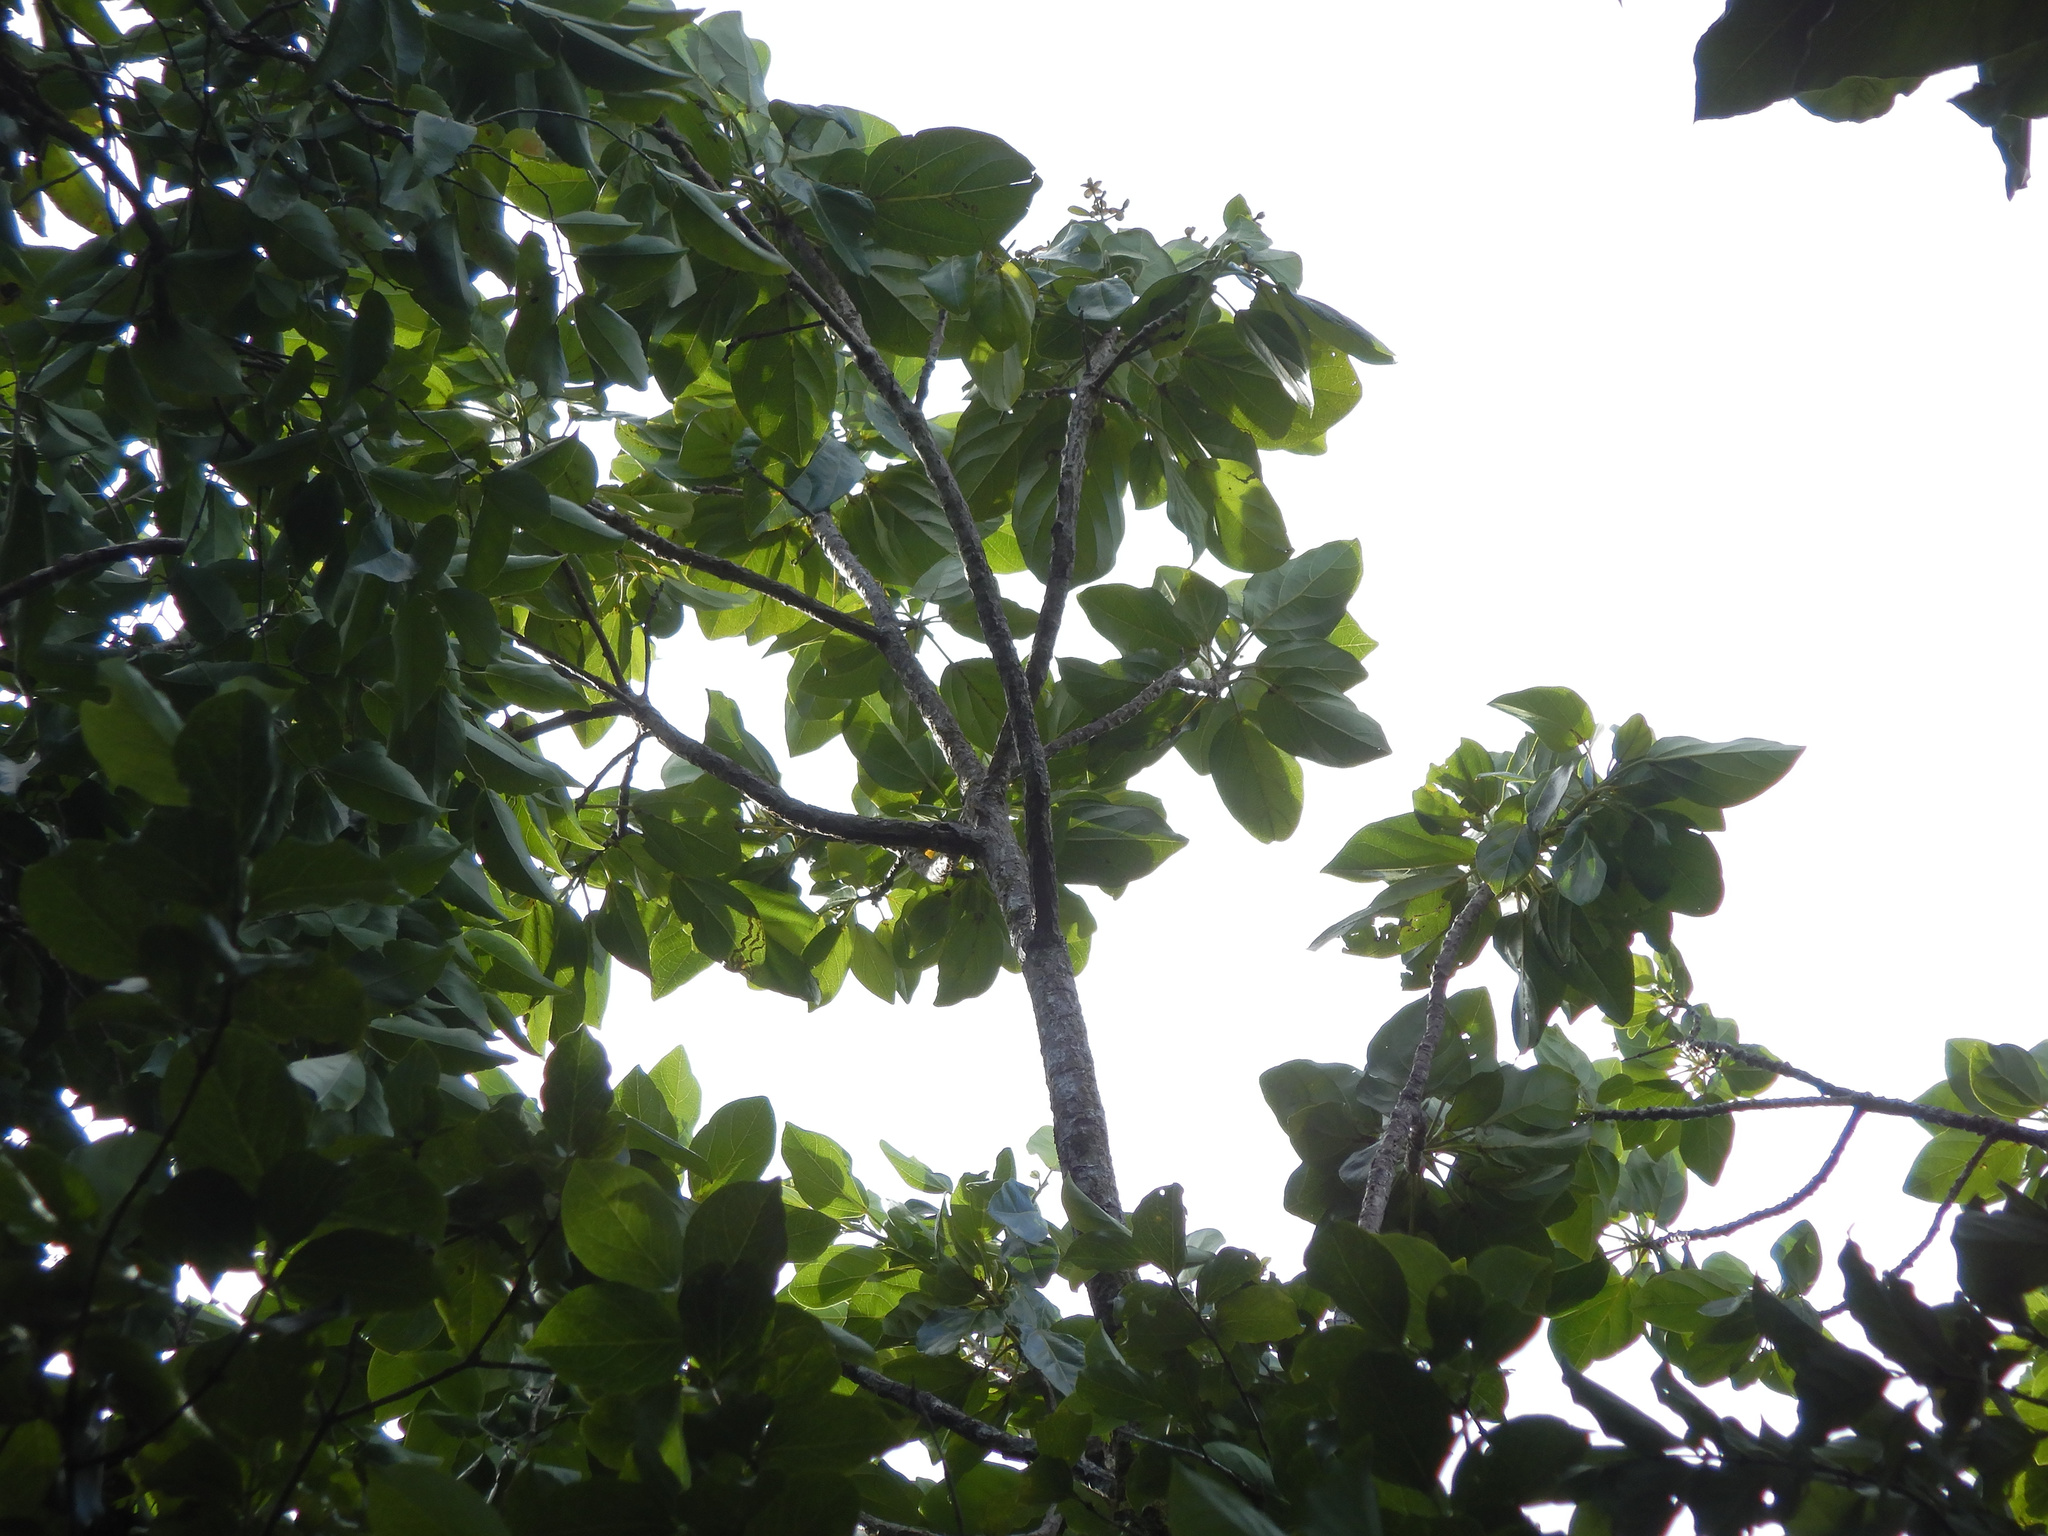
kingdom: Plantae
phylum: Tracheophyta
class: Magnoliopsida
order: Asterales
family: Asteraceae
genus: Fitchia
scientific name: Fitchia speciosa
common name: Burr daisytree
